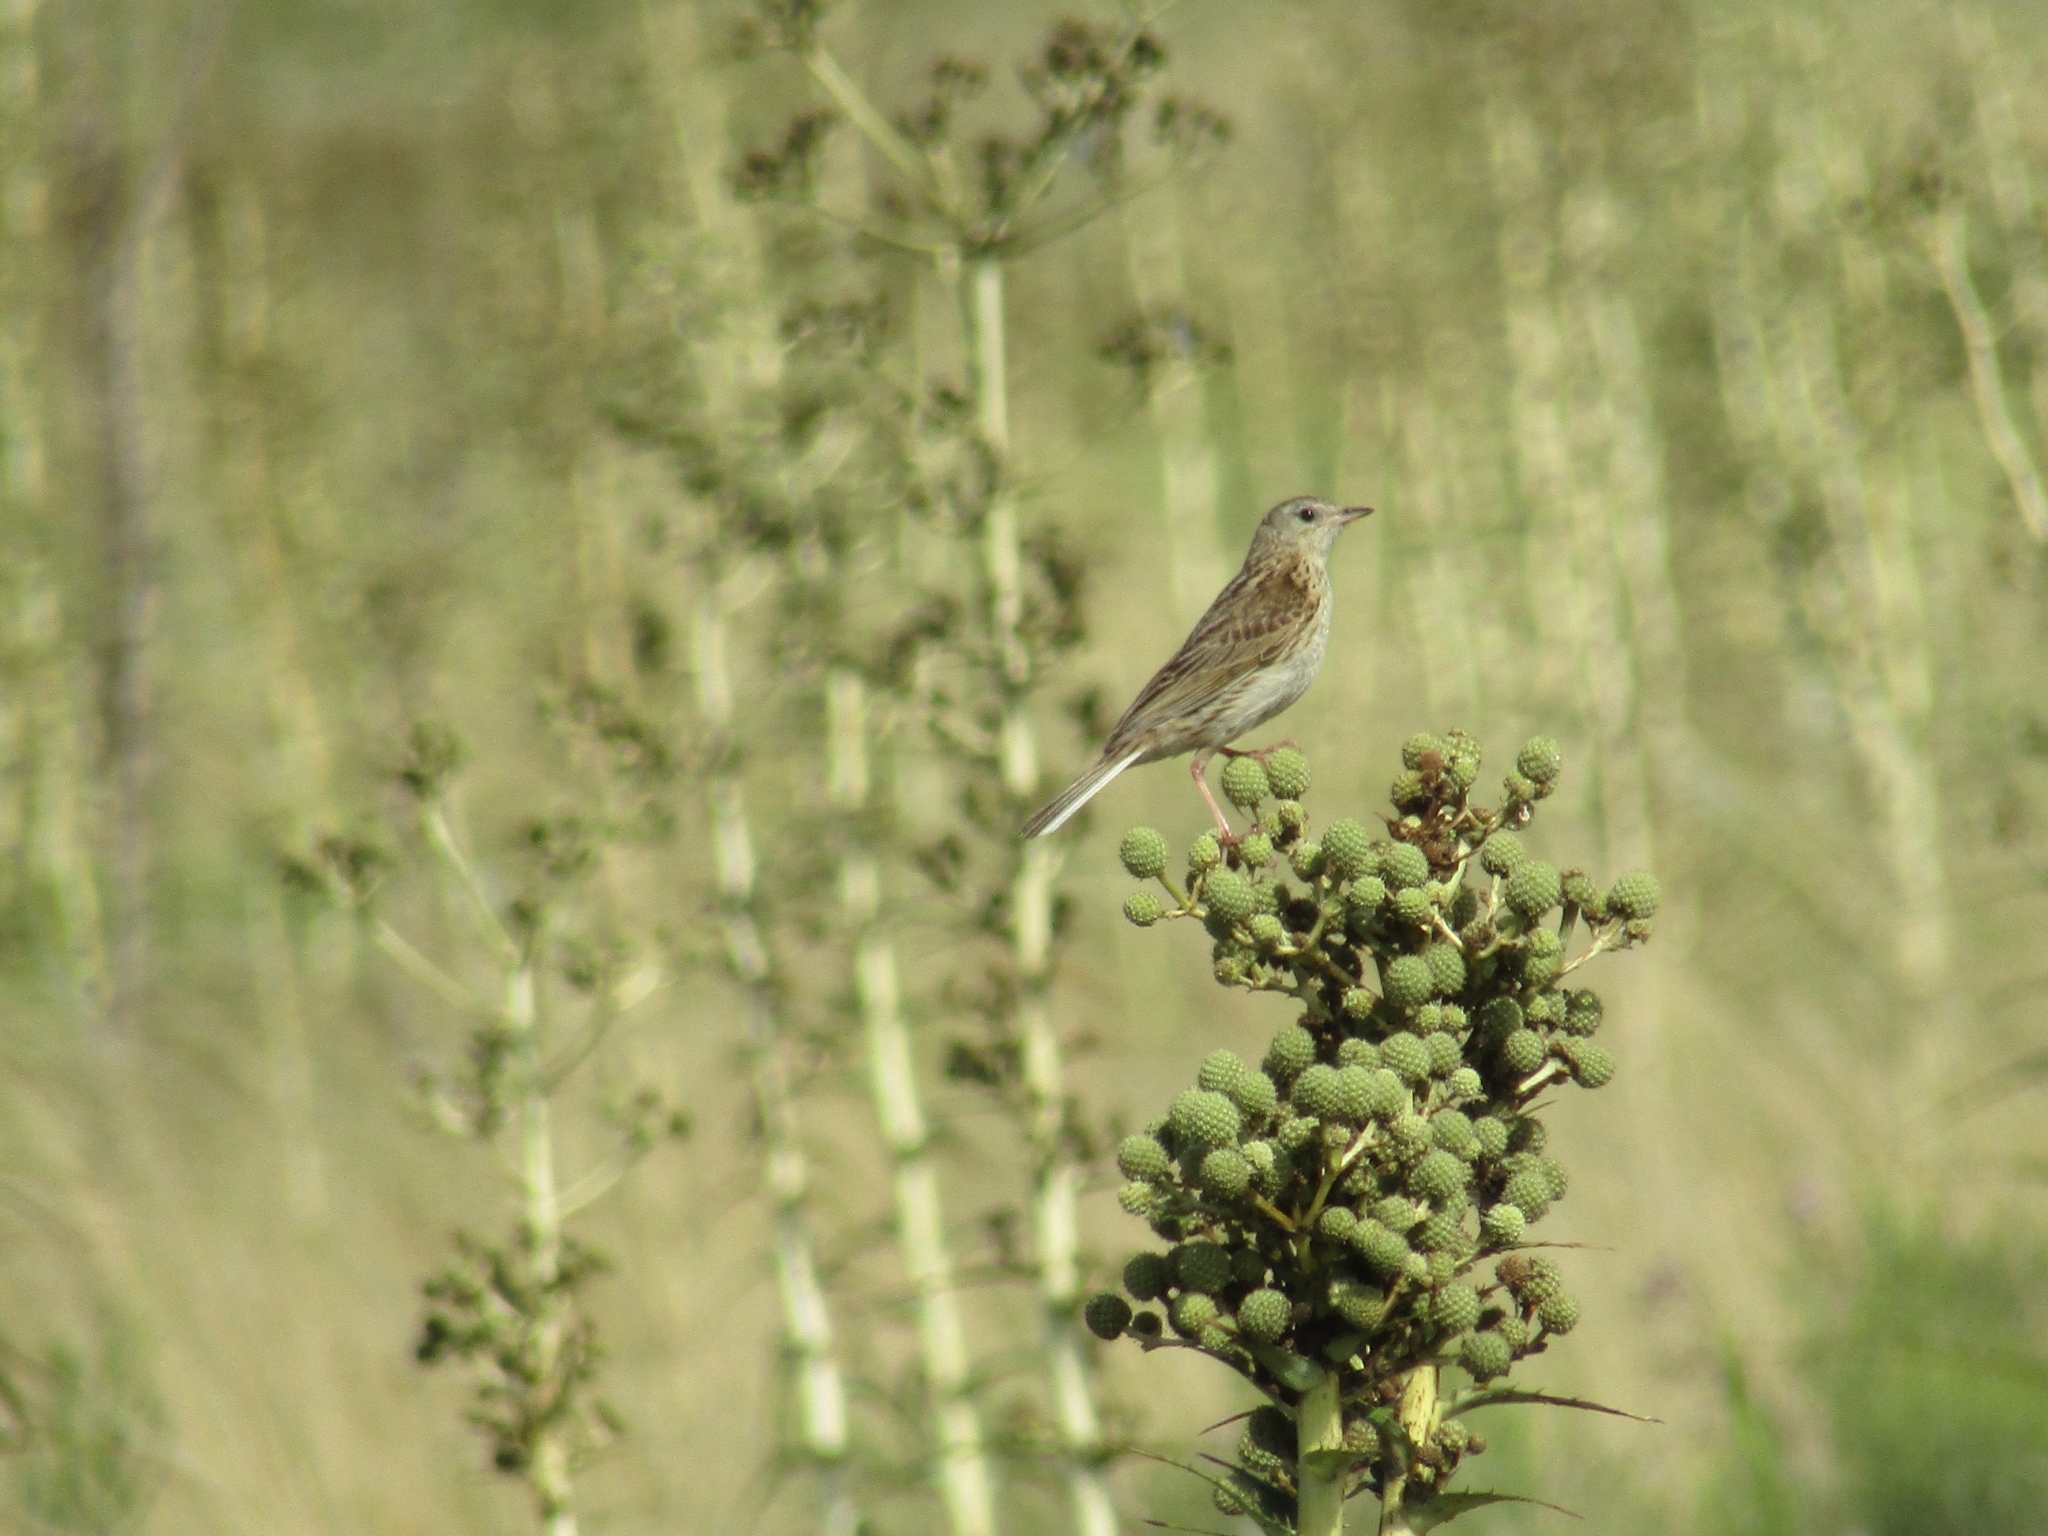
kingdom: Animalia
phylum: Chordata
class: Aves
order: Passeriformes
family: Motacillidae
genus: Anthus
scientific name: Anthus hellmayri
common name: Hellmayr's pipit
